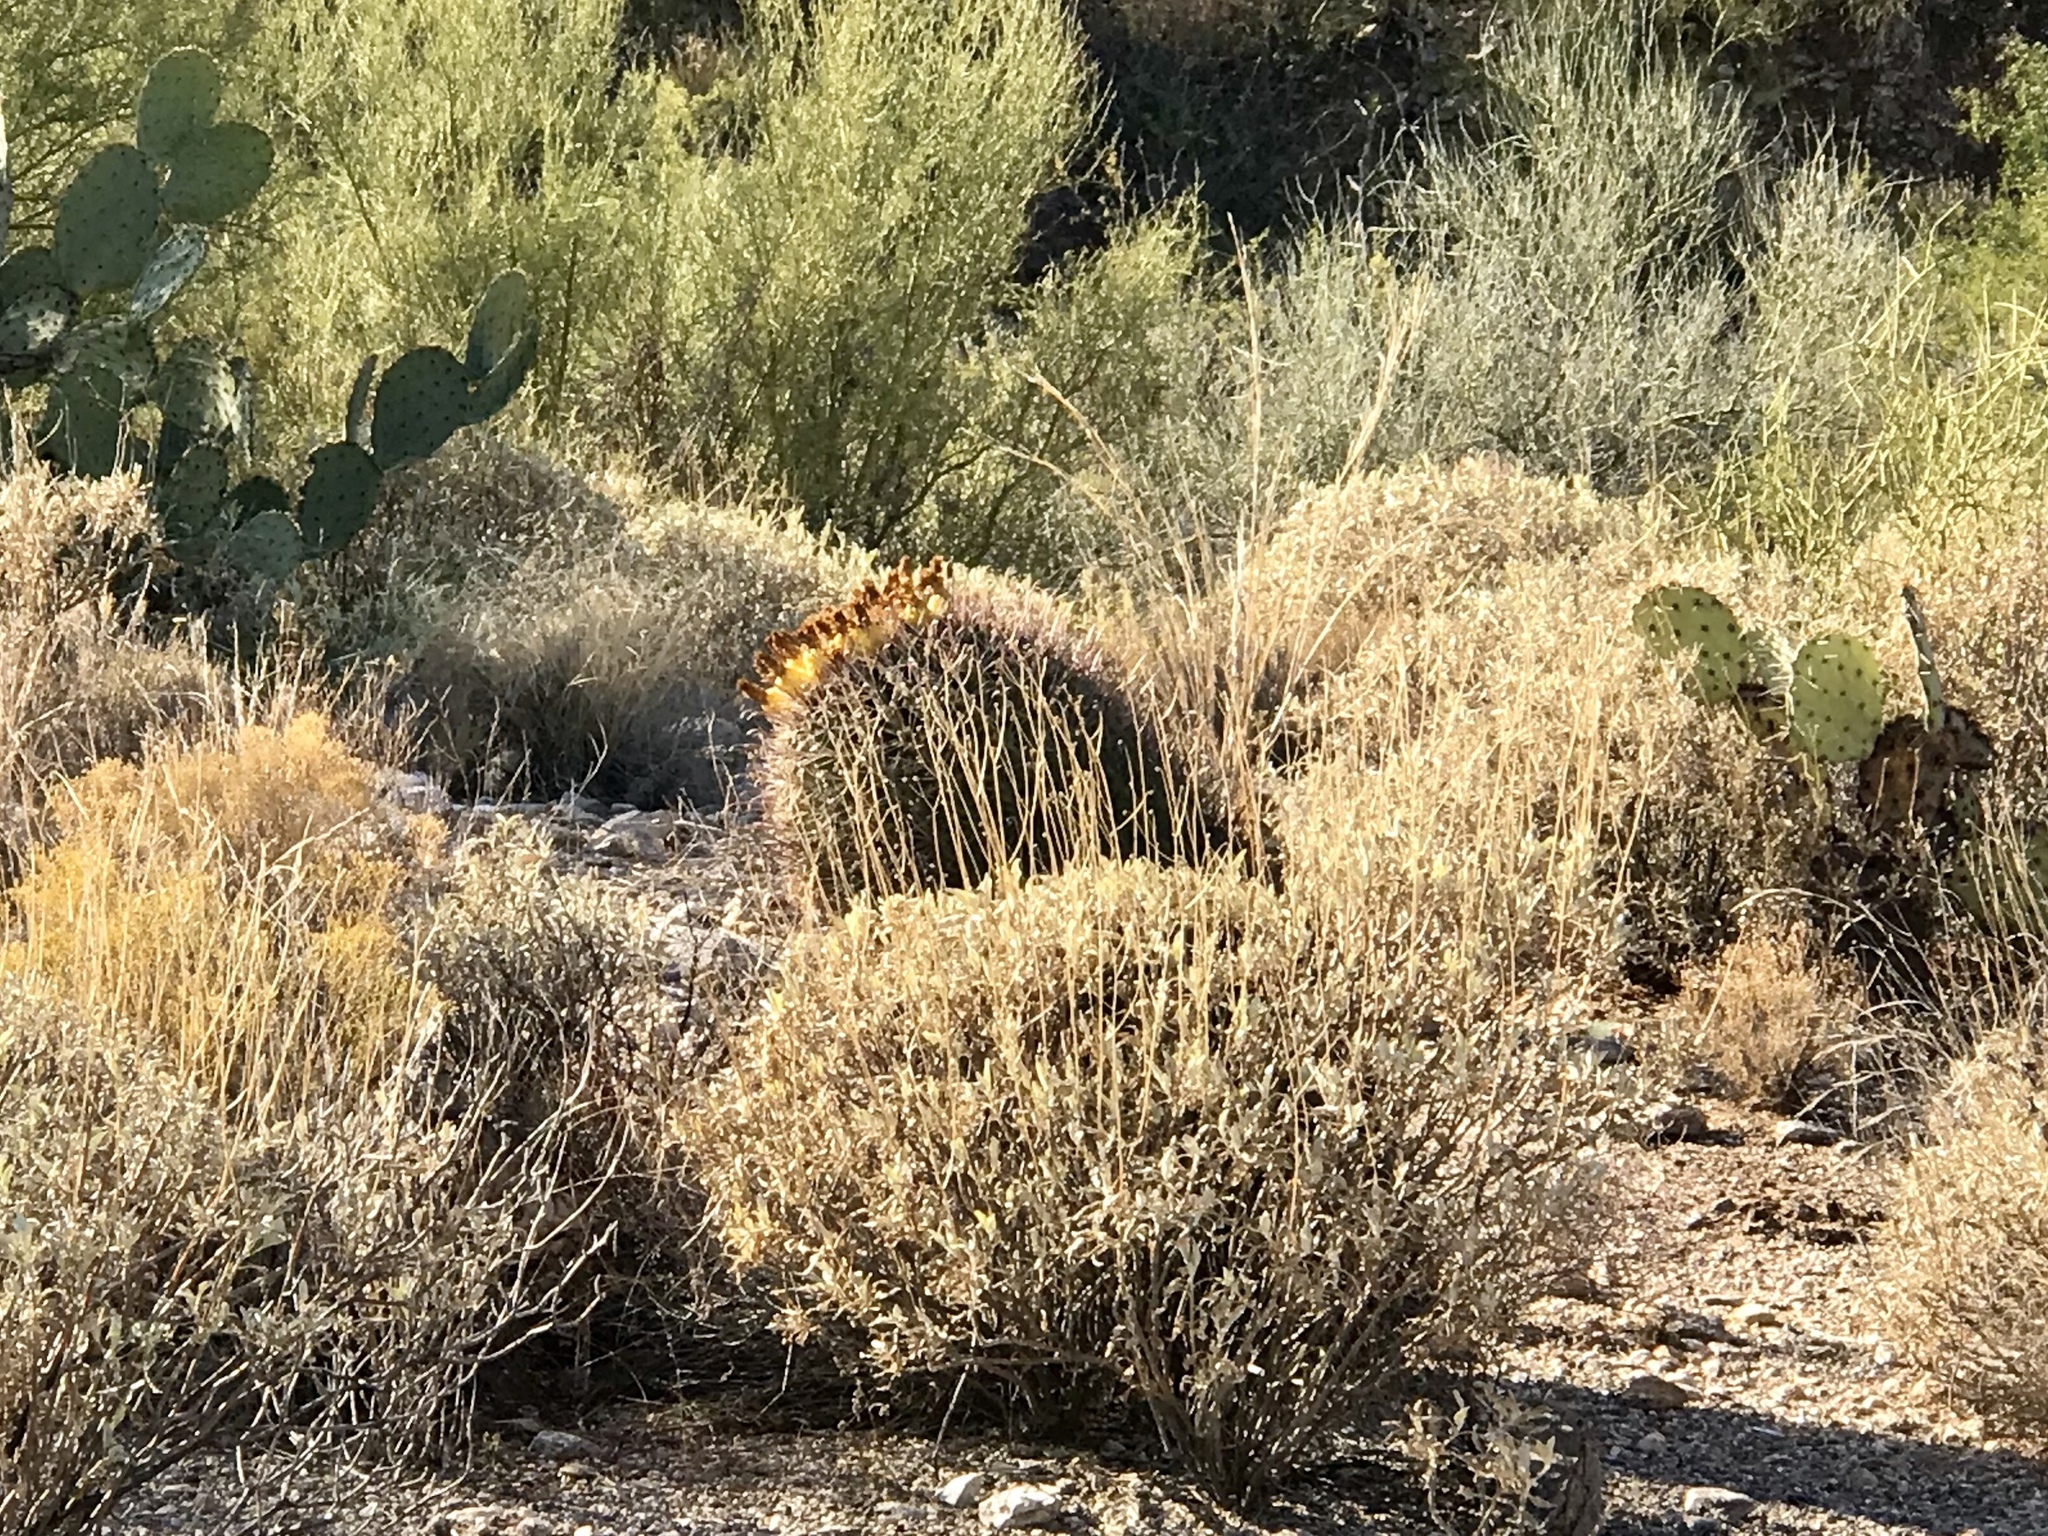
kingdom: Plantae
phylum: Tracheophyta
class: Magnoliopsida
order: Caryophyllales
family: Cactaceae
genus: Ferocactus
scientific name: Ferocactus wislizeni
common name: Candy barrel cactus
